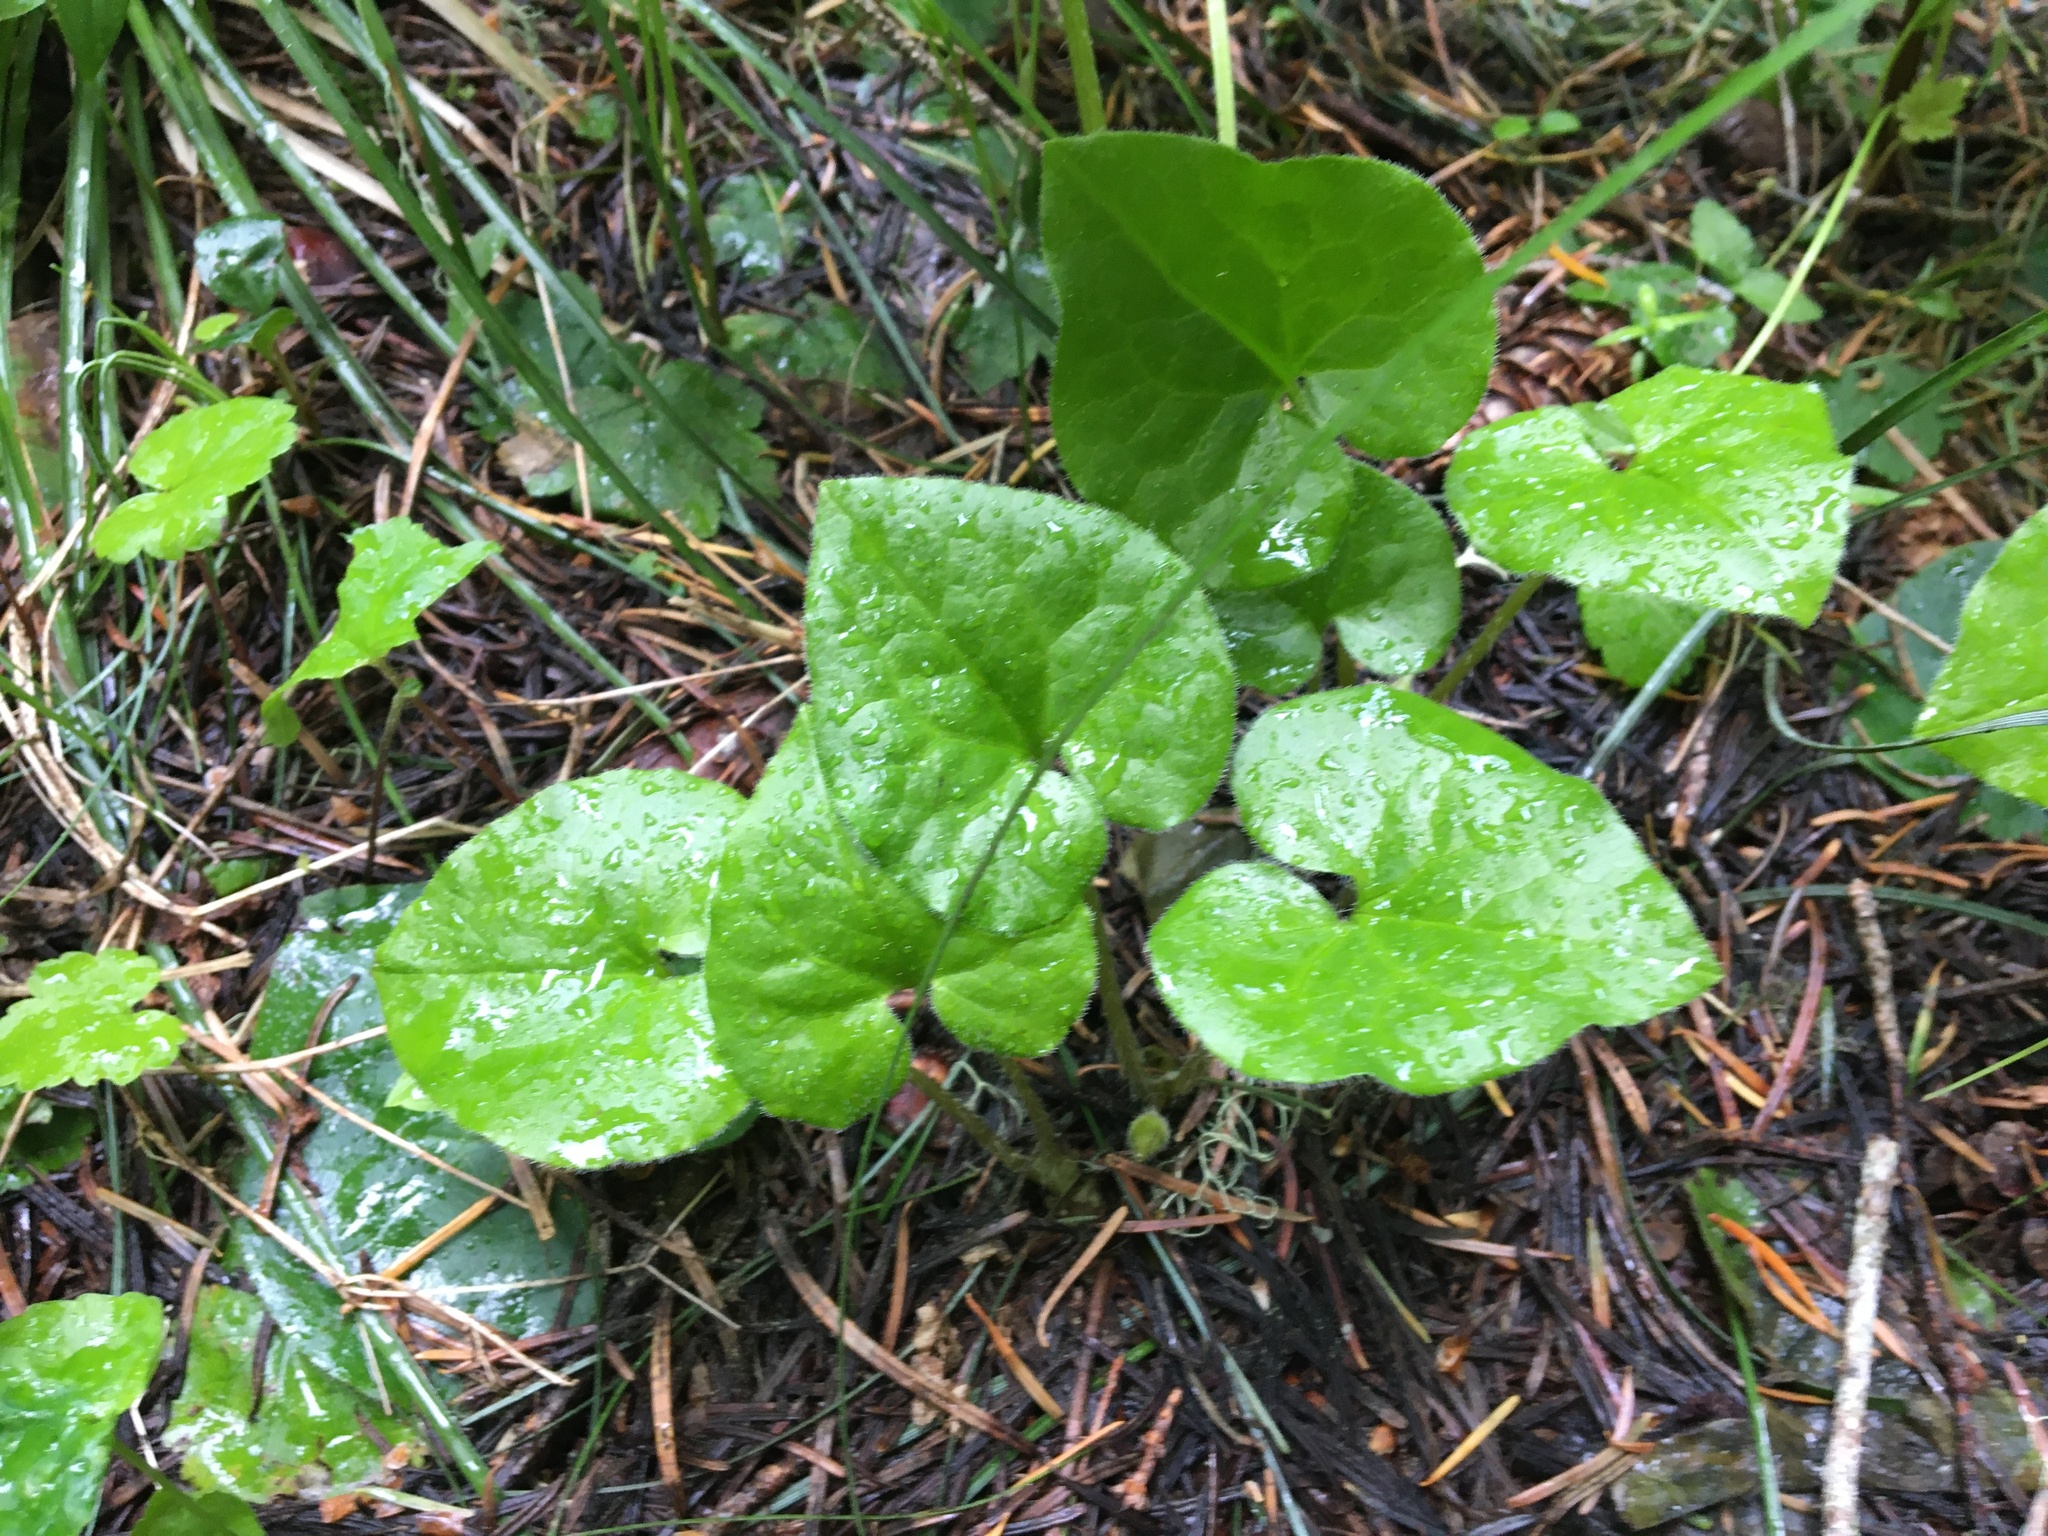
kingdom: Plantae
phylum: Tracheophyta
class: Magnoliopsida
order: Piperales
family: Aristolochiaceae
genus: Asarum
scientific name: Asarum caudatum
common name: Wild ginger
